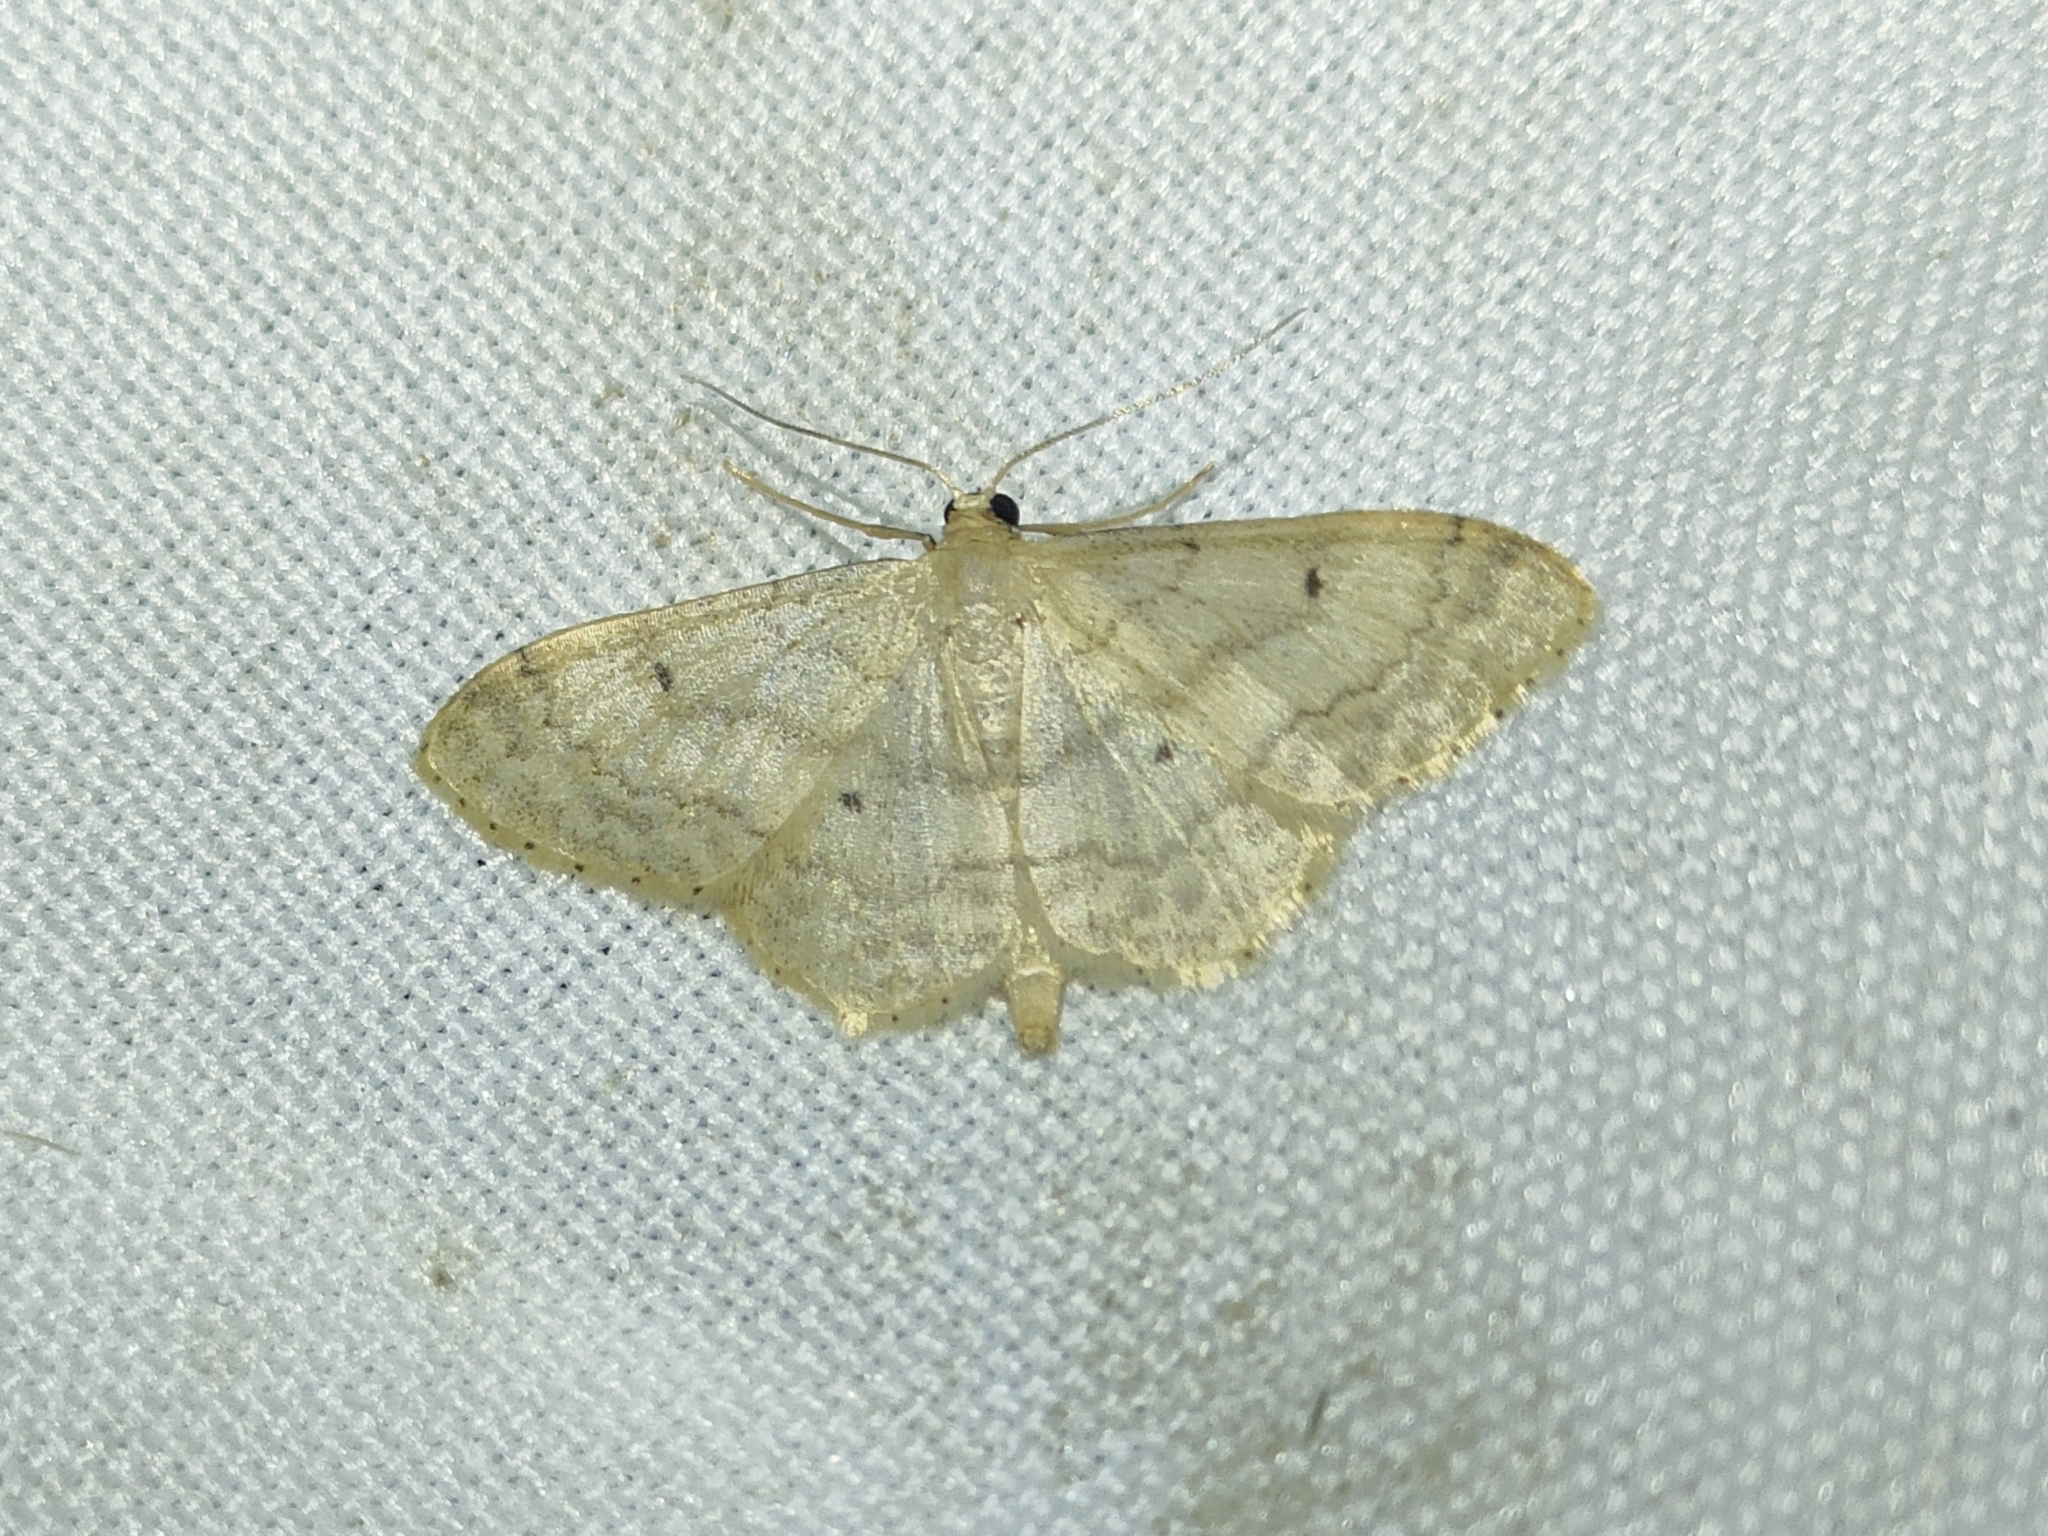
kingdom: Animalia
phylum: Arthropoda
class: Insecta
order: Lepidoptera
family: Geometridae
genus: Idaea
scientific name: Idaea biselata
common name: Small fan-footed wave
